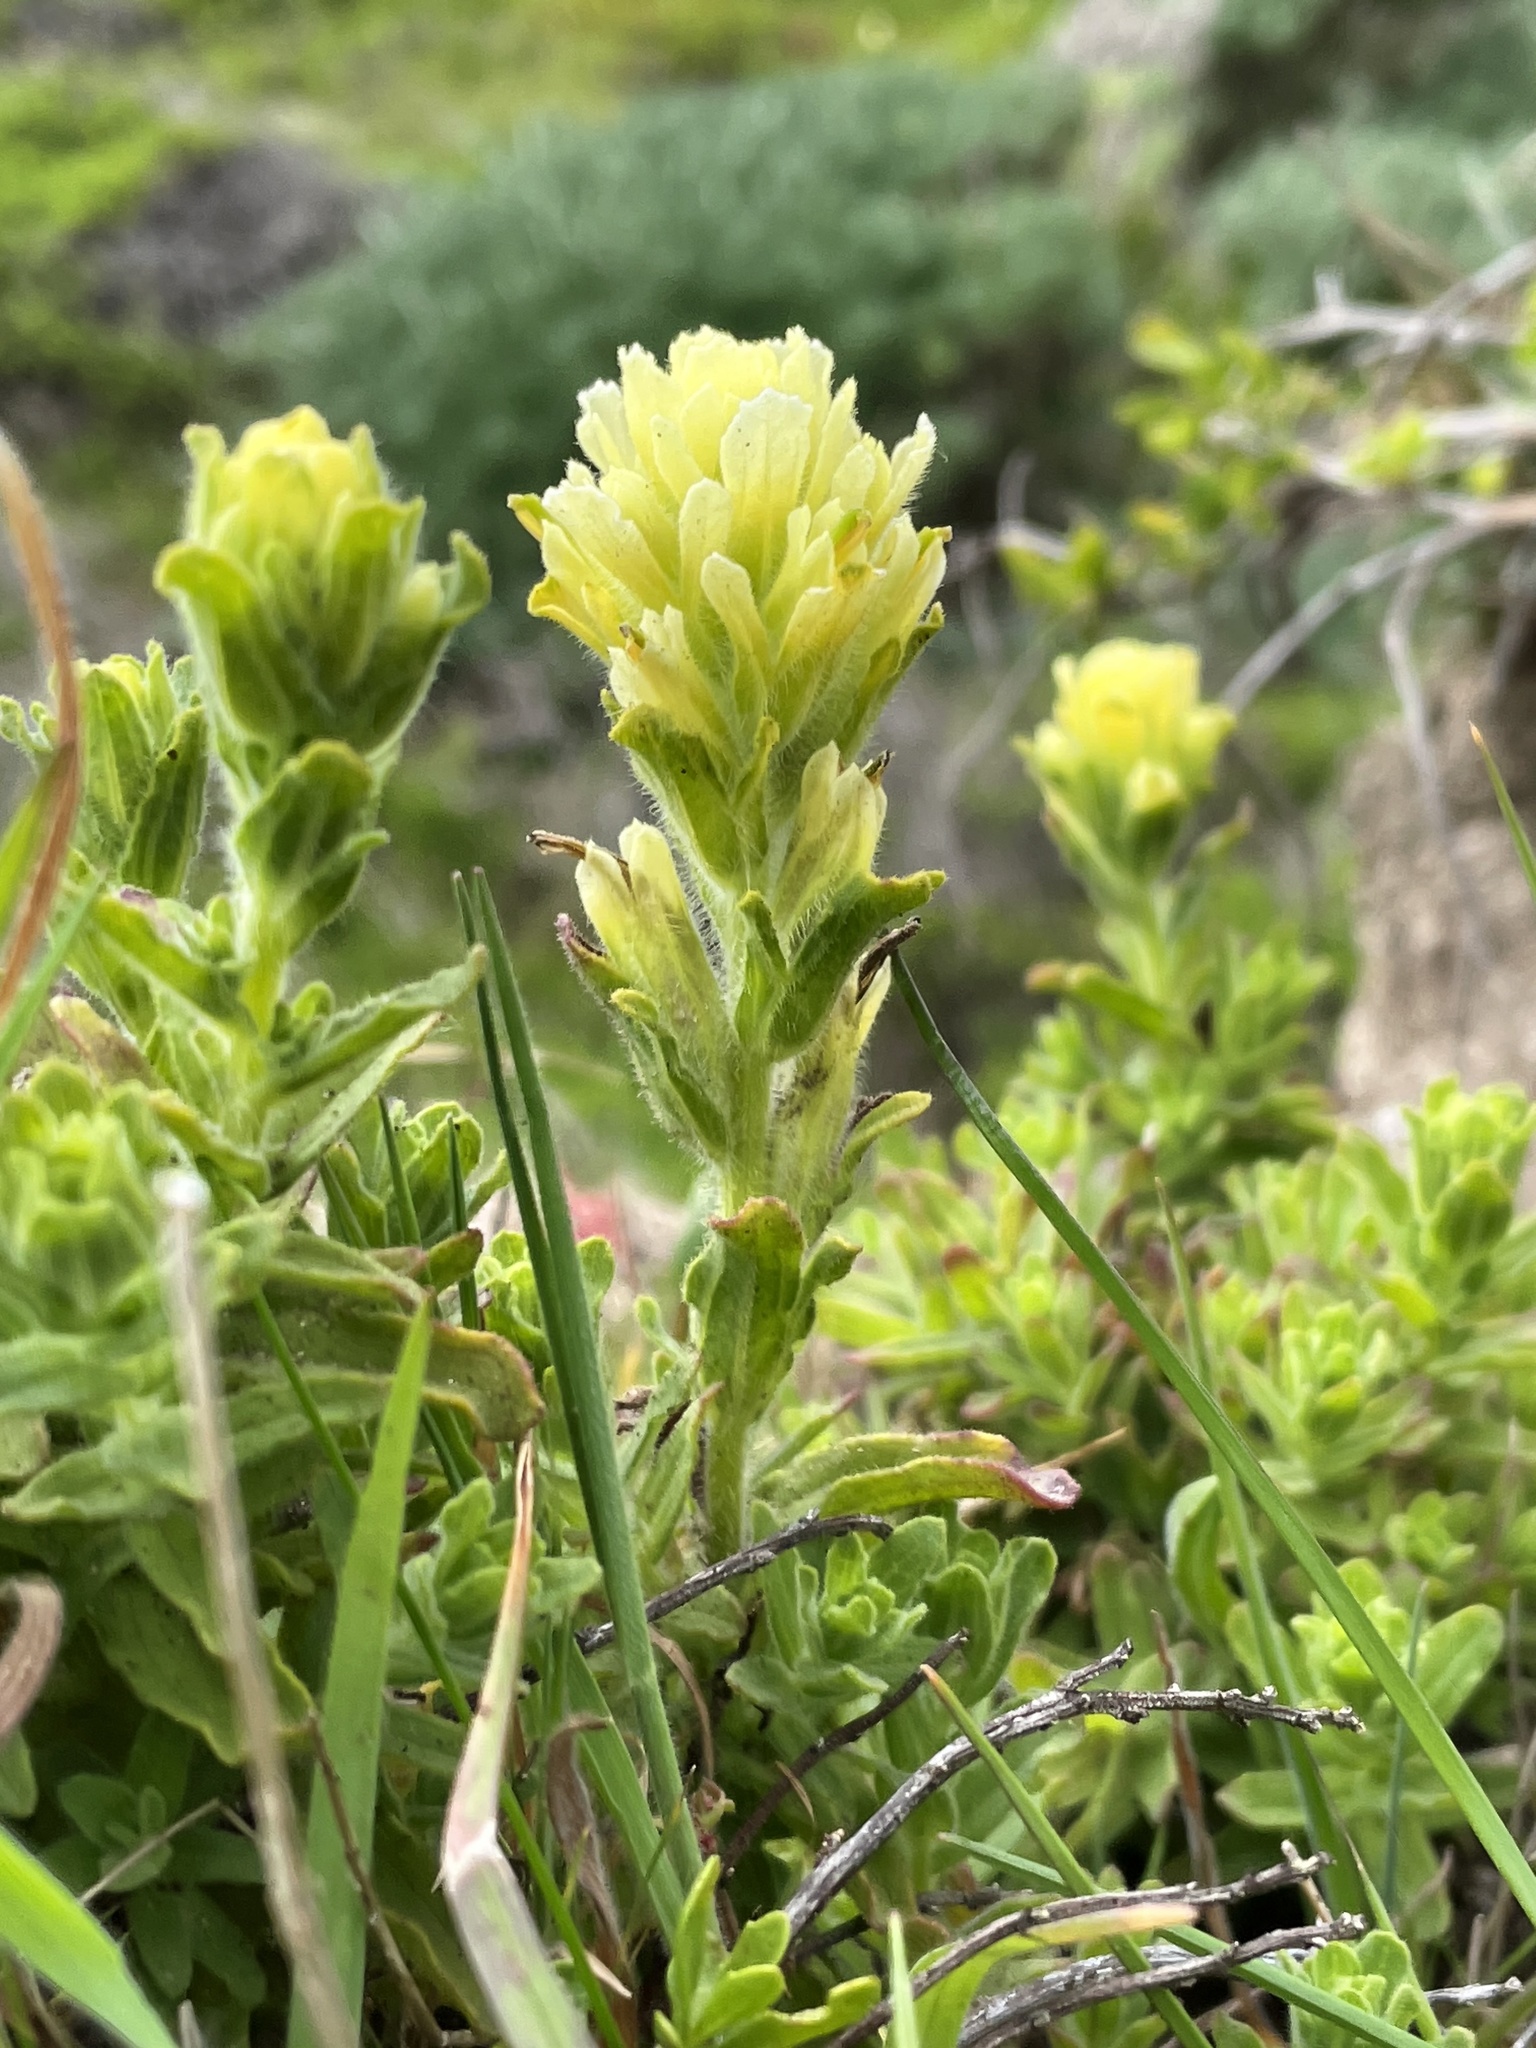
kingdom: Plantae
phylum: Tracheophyta
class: Magnoliopsida
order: Lamiales
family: Orobanchaceae
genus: Castilleja
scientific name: Castilleja wightii
